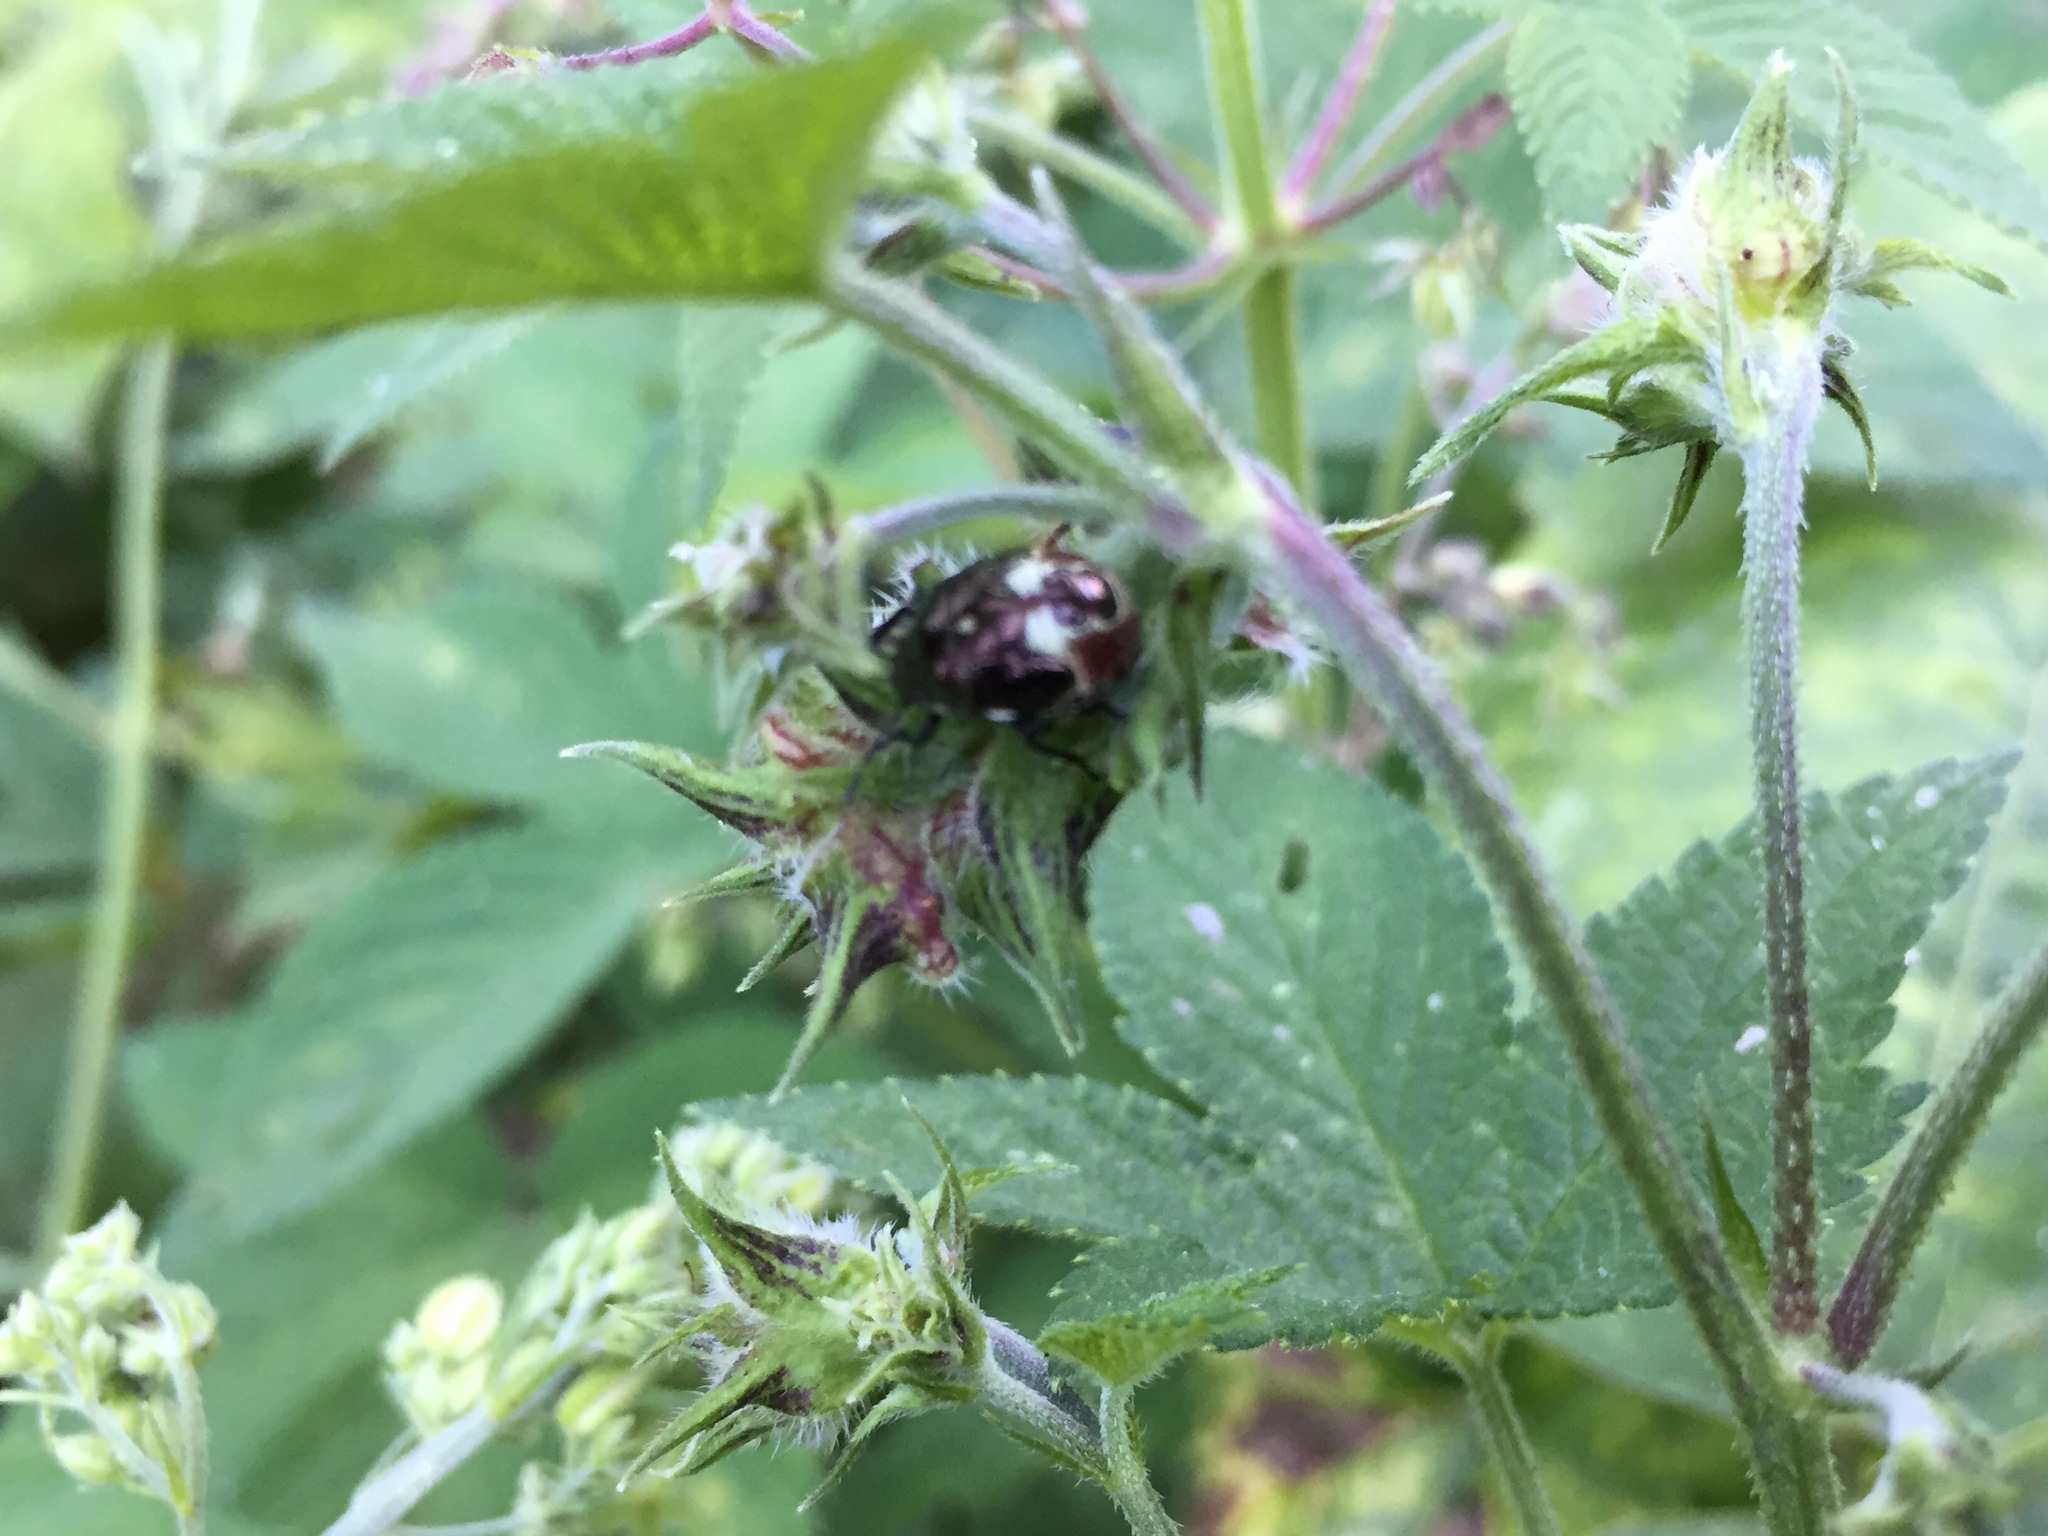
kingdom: Animalia
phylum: Arthropoda
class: Insecta
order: Hemiptera
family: Pentatomidae
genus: Menida
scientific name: Menida violacea
